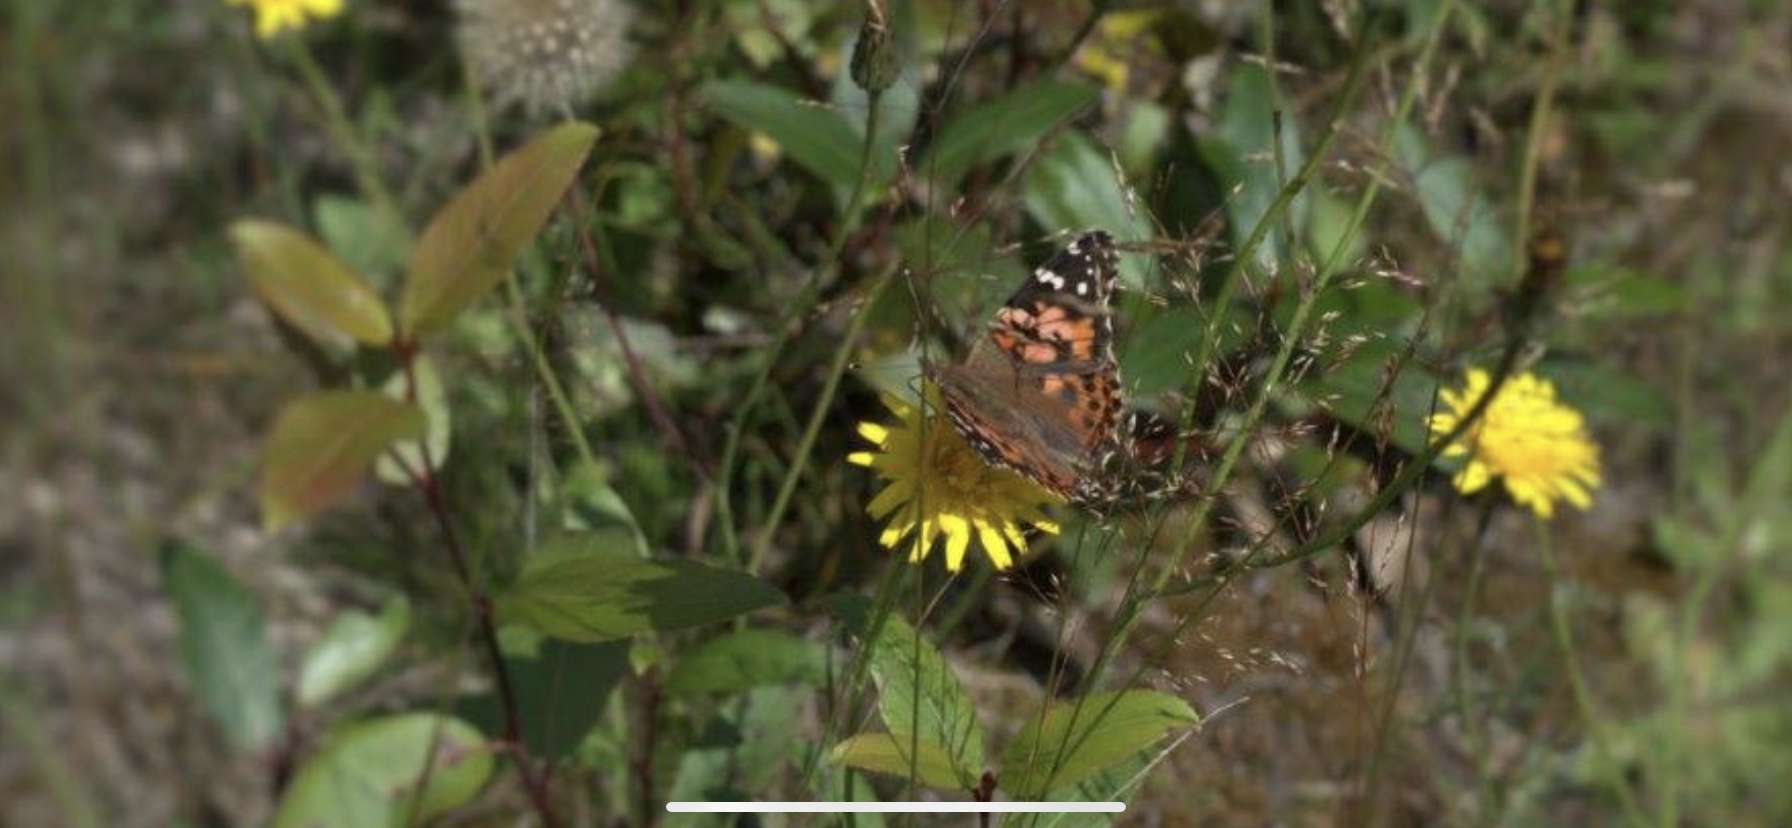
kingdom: Animalia
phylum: Arthropoda
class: Insecta
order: Lepidoptera
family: Nymphalidae
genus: Vanessa
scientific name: Vanessa cardui
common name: Painted lady
